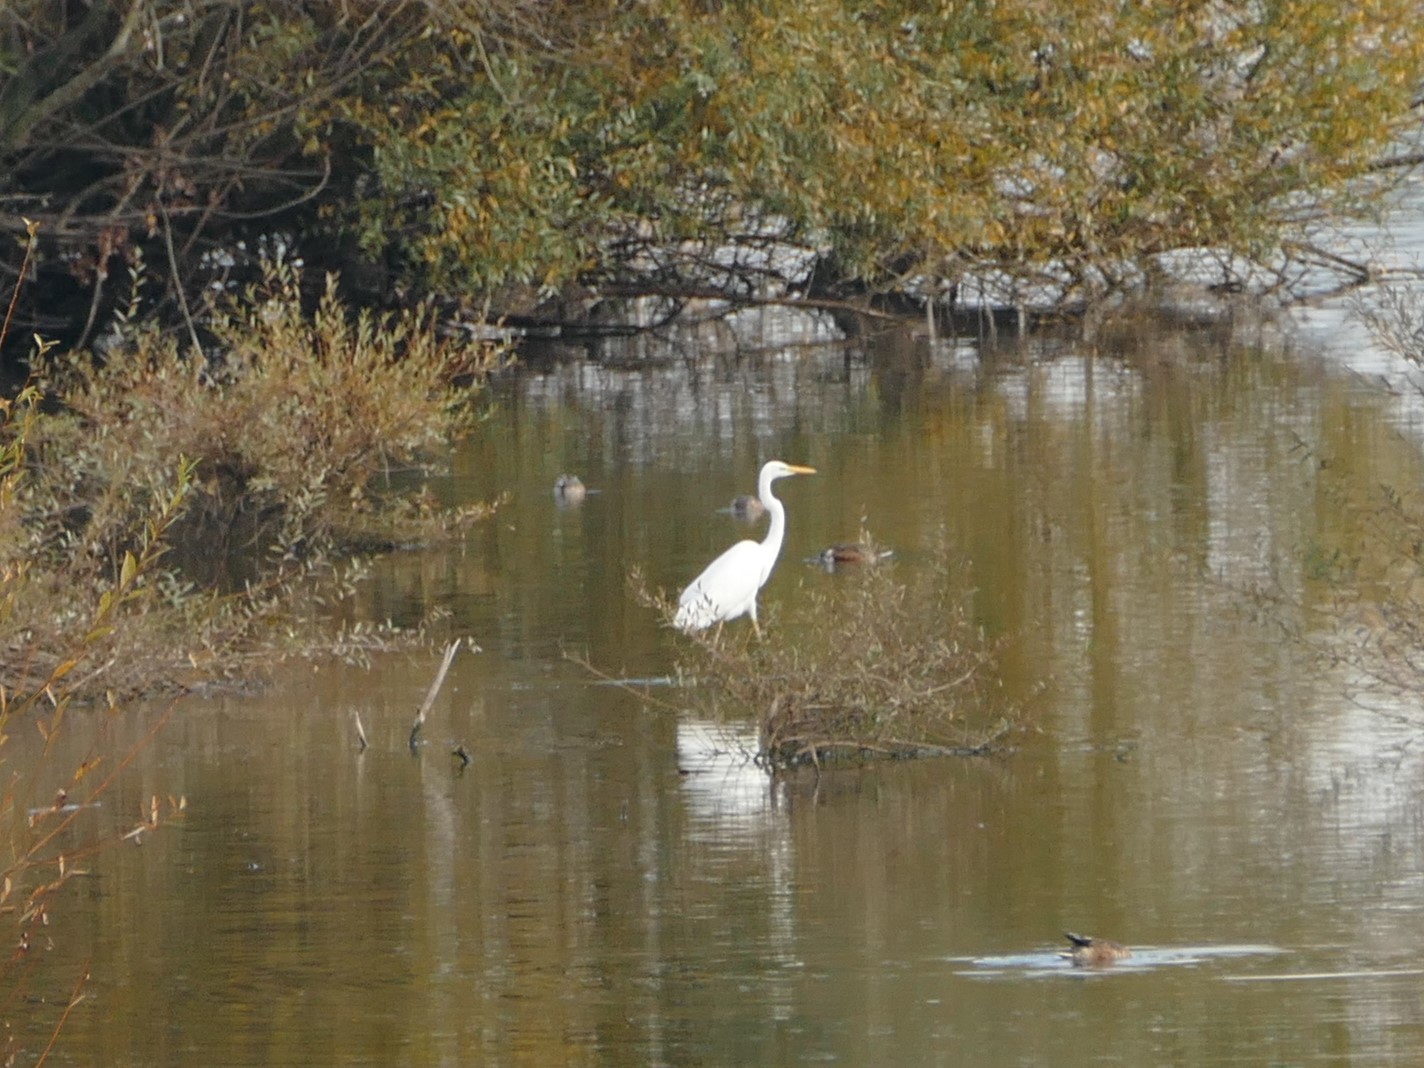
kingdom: Animalia
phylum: Chordata
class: Aves
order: Pelecaniformes
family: Ardeidae
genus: Ardea
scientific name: Ardea alba
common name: Great egret
